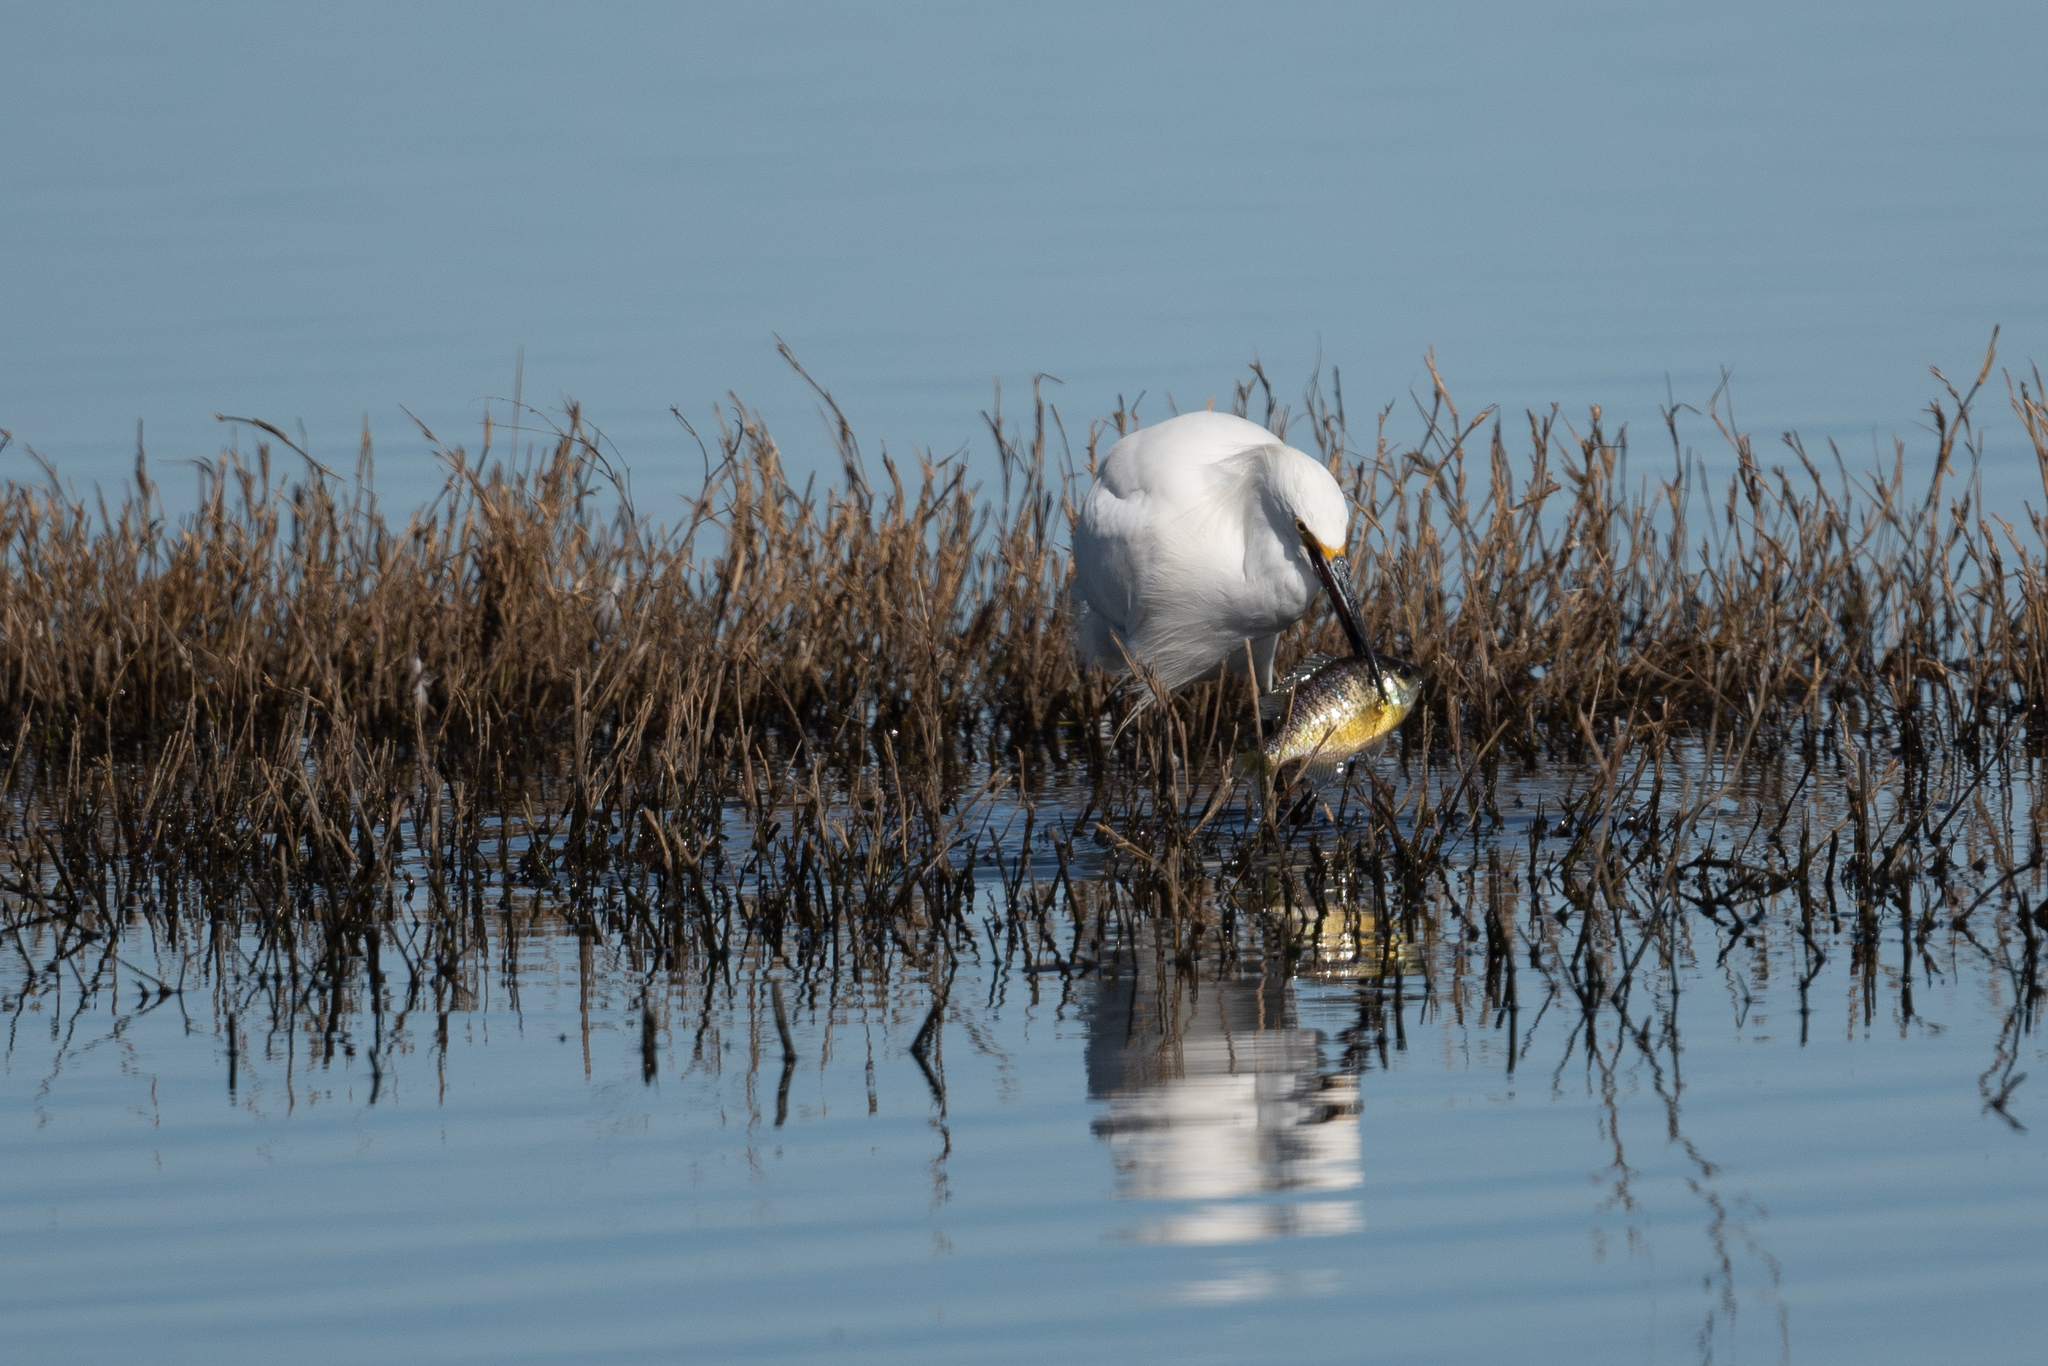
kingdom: Animalia
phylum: Chordata
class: Aves
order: Pelecaniformes
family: Ardeidae
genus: Egretta
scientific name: Egretta thula
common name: Snowy egret
